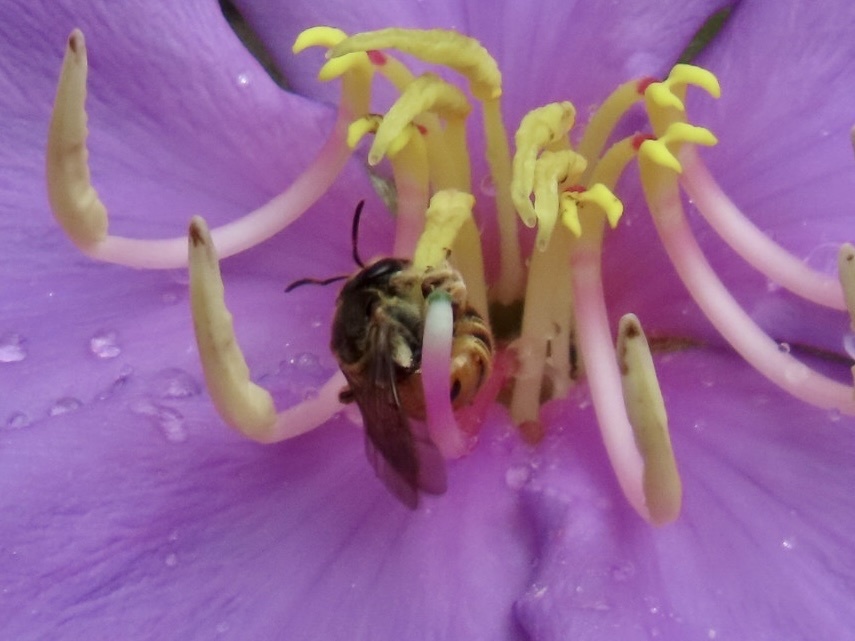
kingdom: Animalia
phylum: Arthropoda
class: Insecta
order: Hymenoptera
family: Halictidae
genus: Nomia
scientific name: Nomia penangensis
